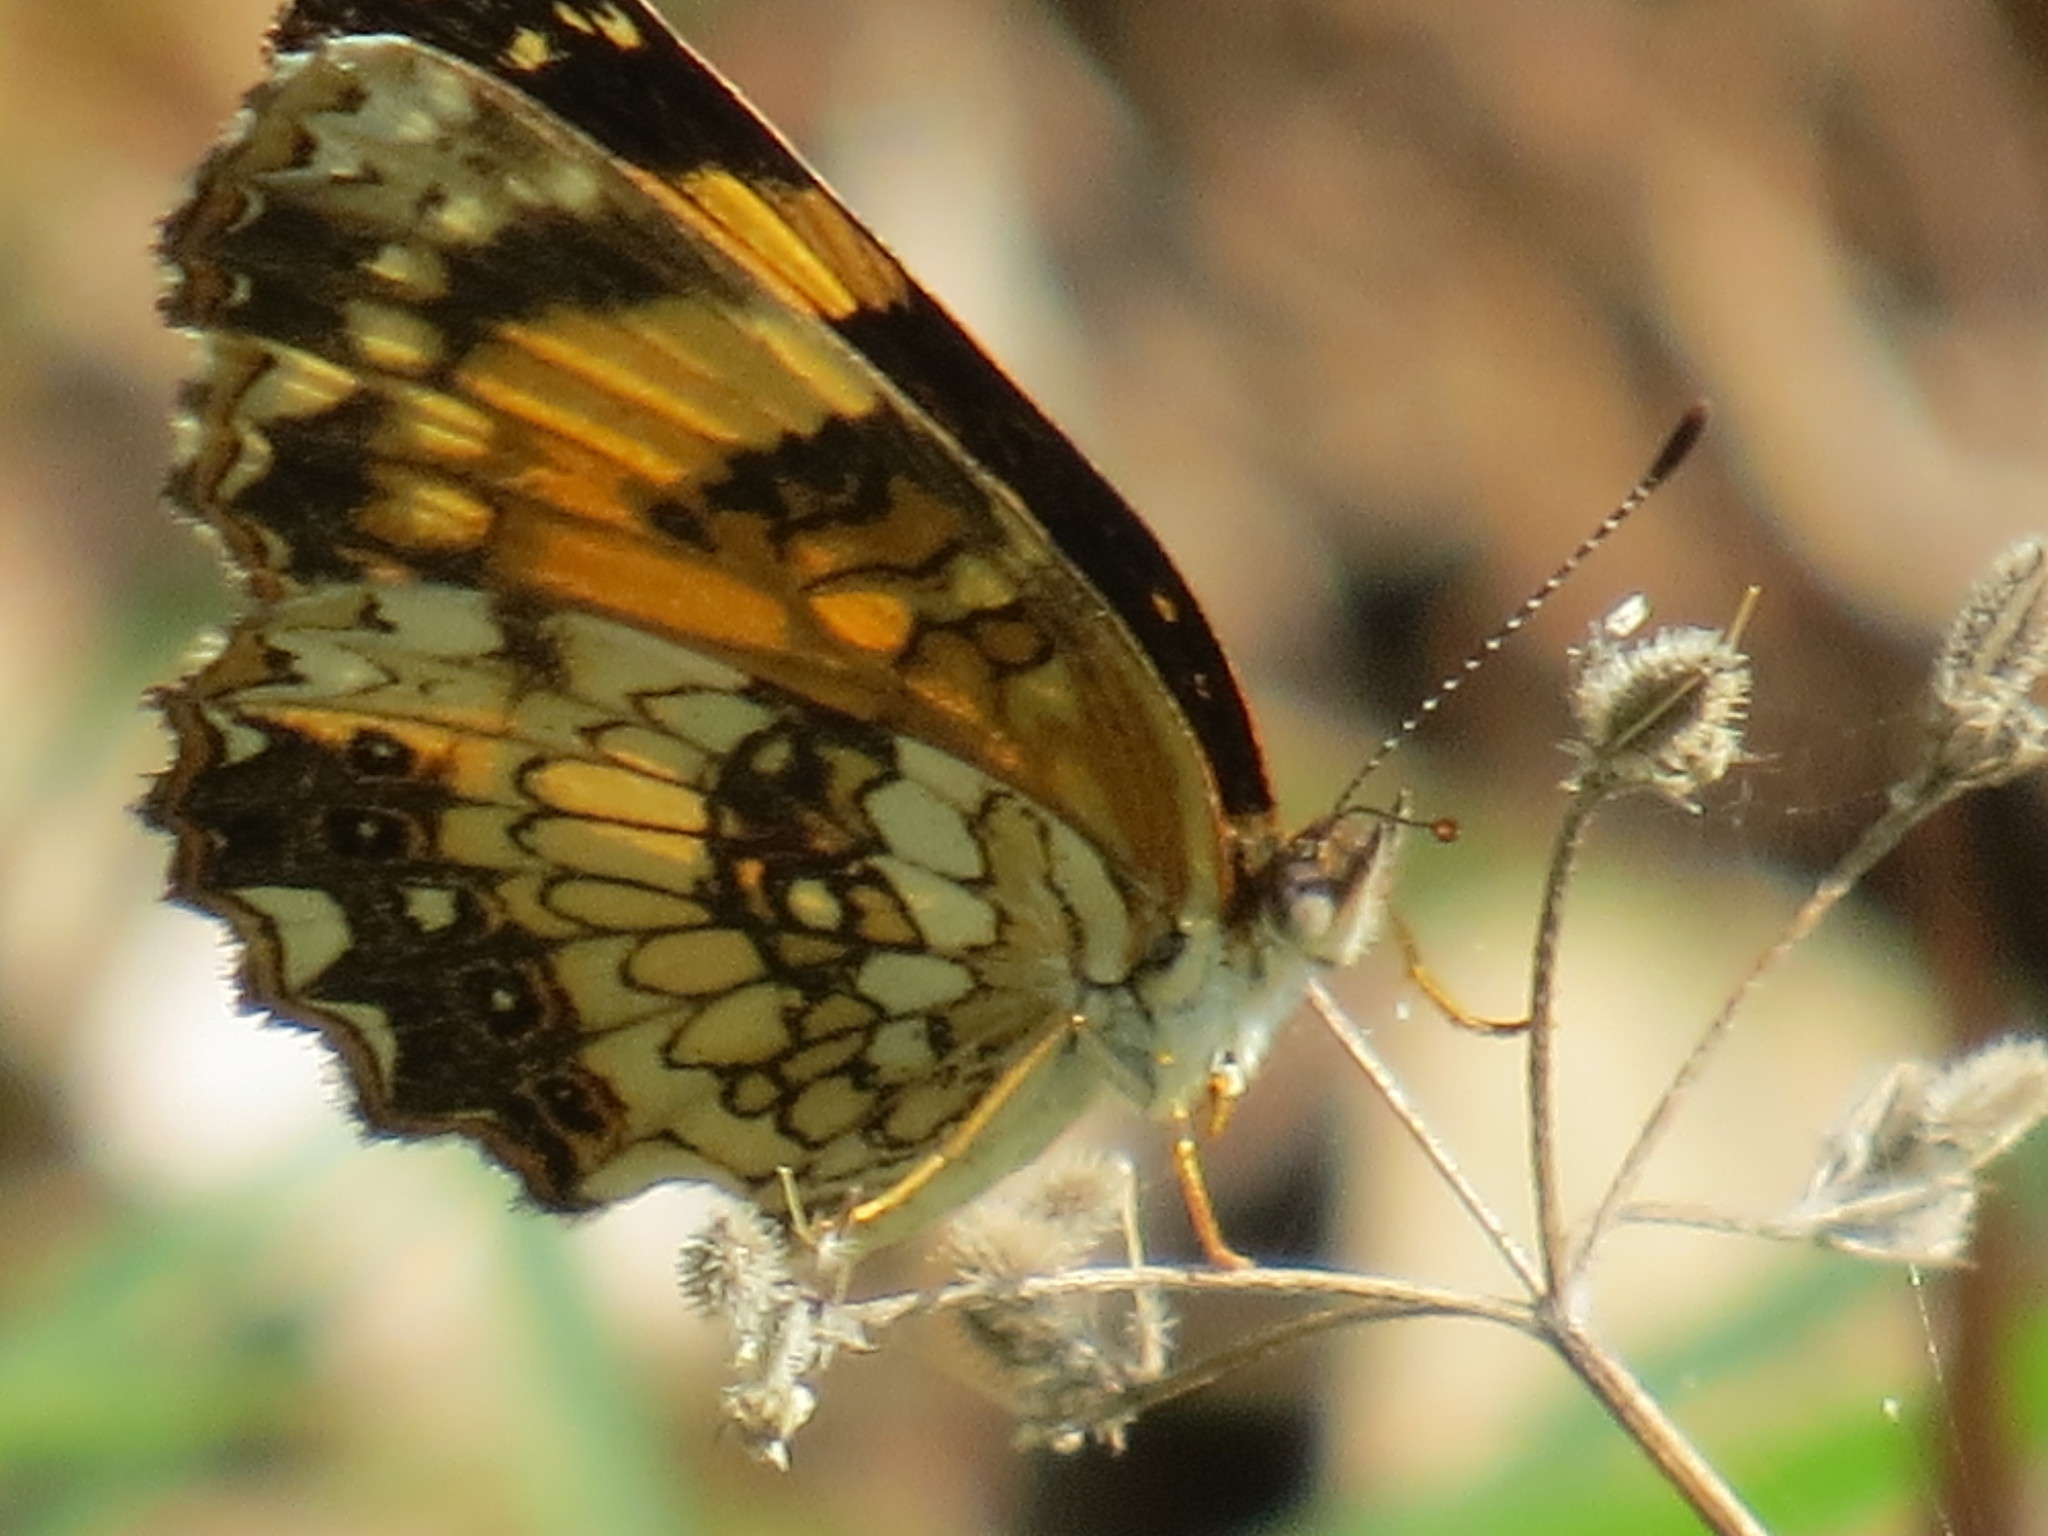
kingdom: Animalia
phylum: Arthropoda
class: Insecta
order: Lepidoptera
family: Nymphalidae
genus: Chlosyne
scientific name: Chlosyne nycteis
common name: Silvery checkerspot
